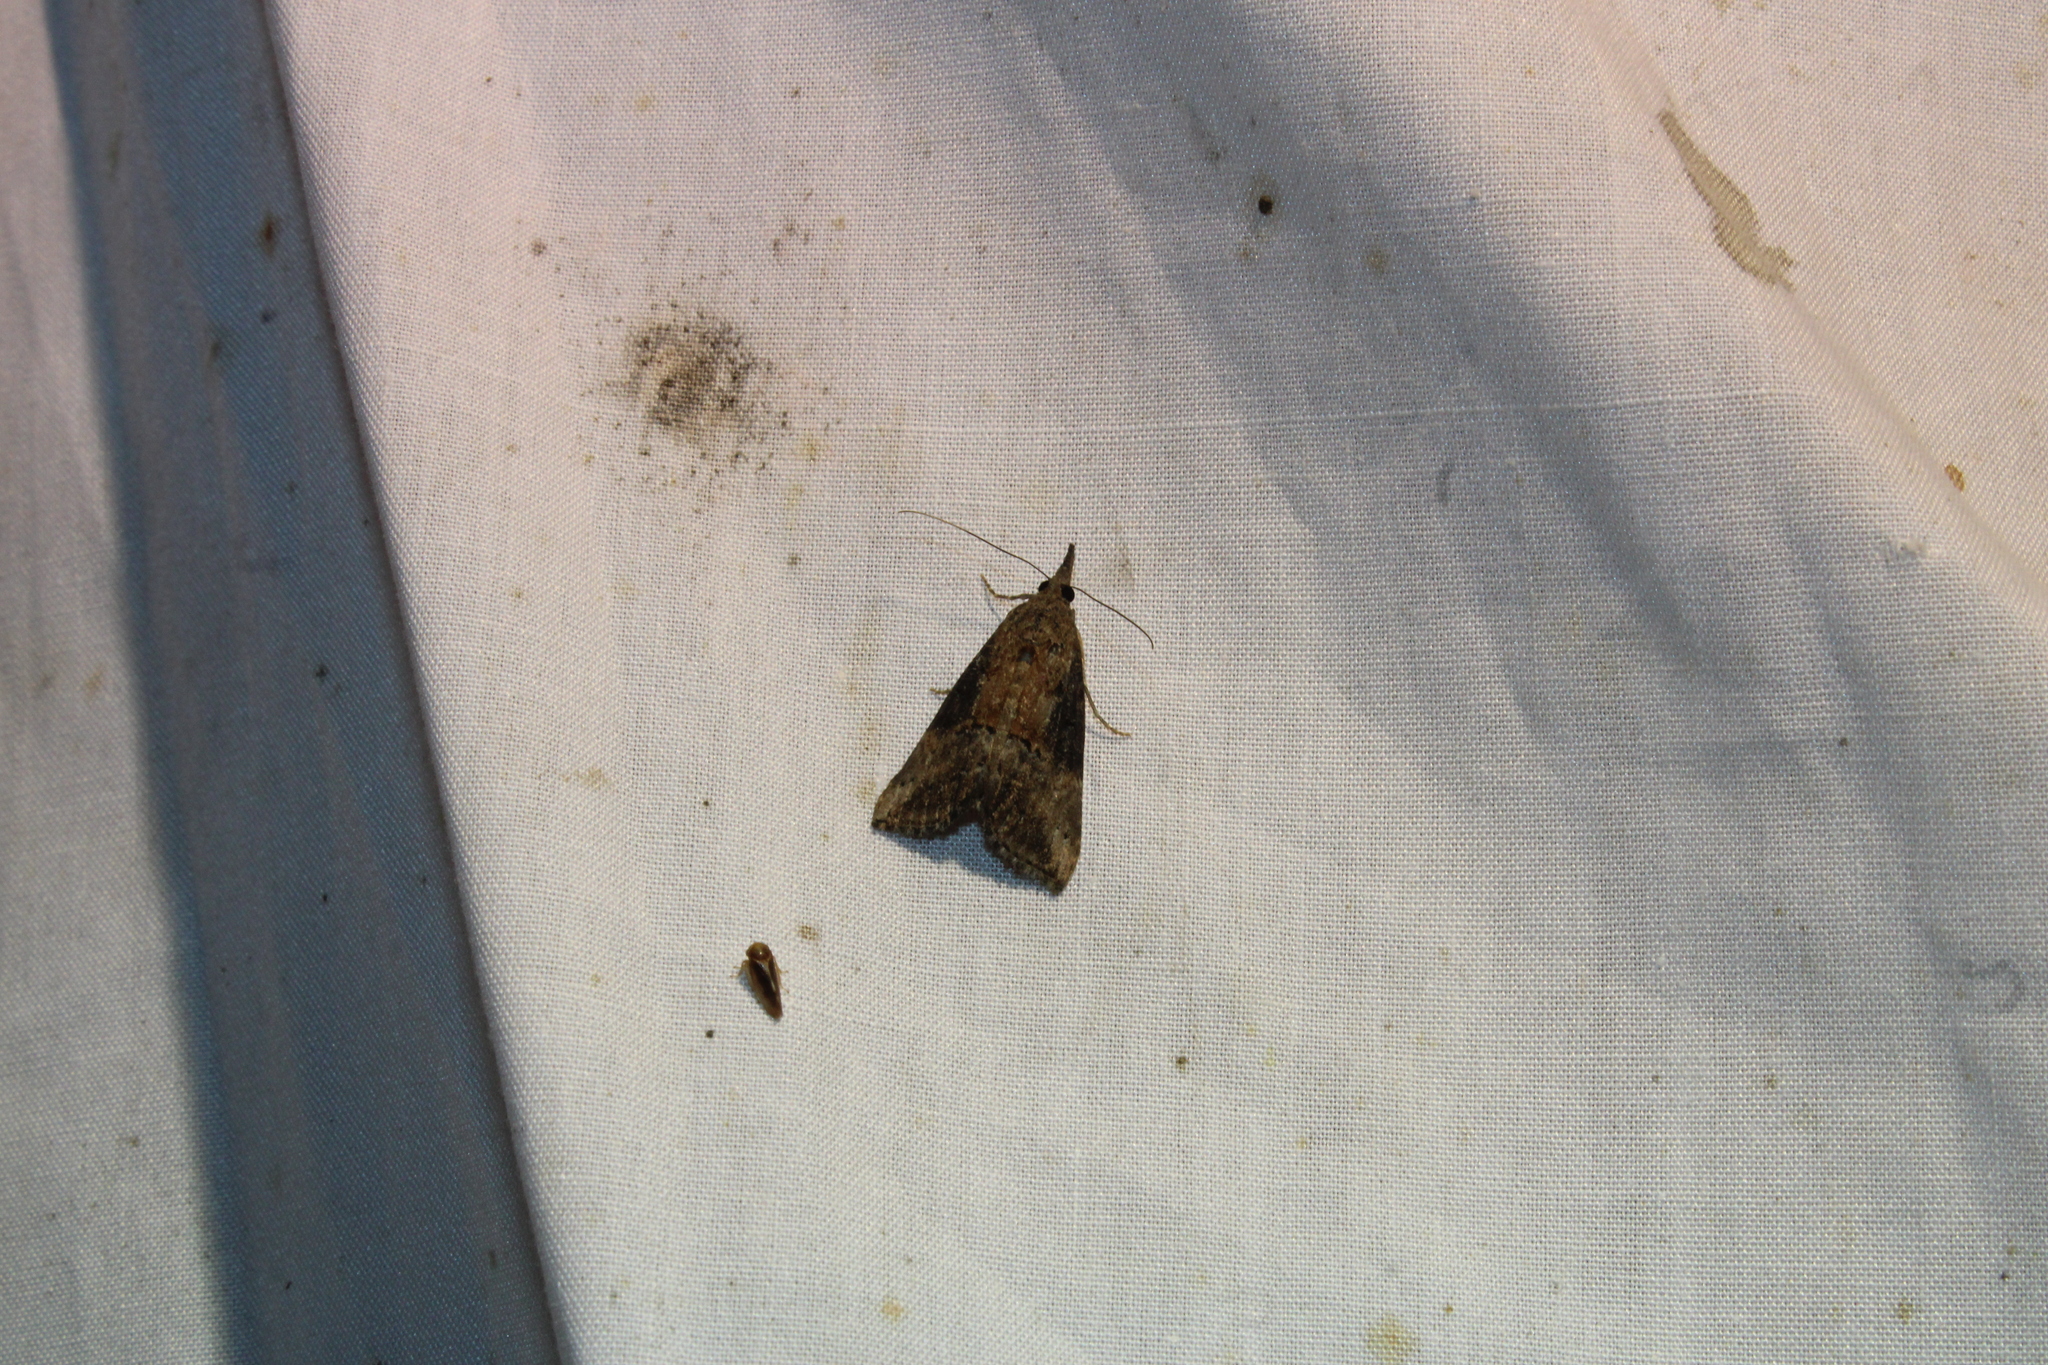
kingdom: Animalia
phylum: Arthropoda
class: Insecta
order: Lepidoptera
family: Erebidae
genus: Hypena
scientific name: Hypena scabra
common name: Green cloverworm
